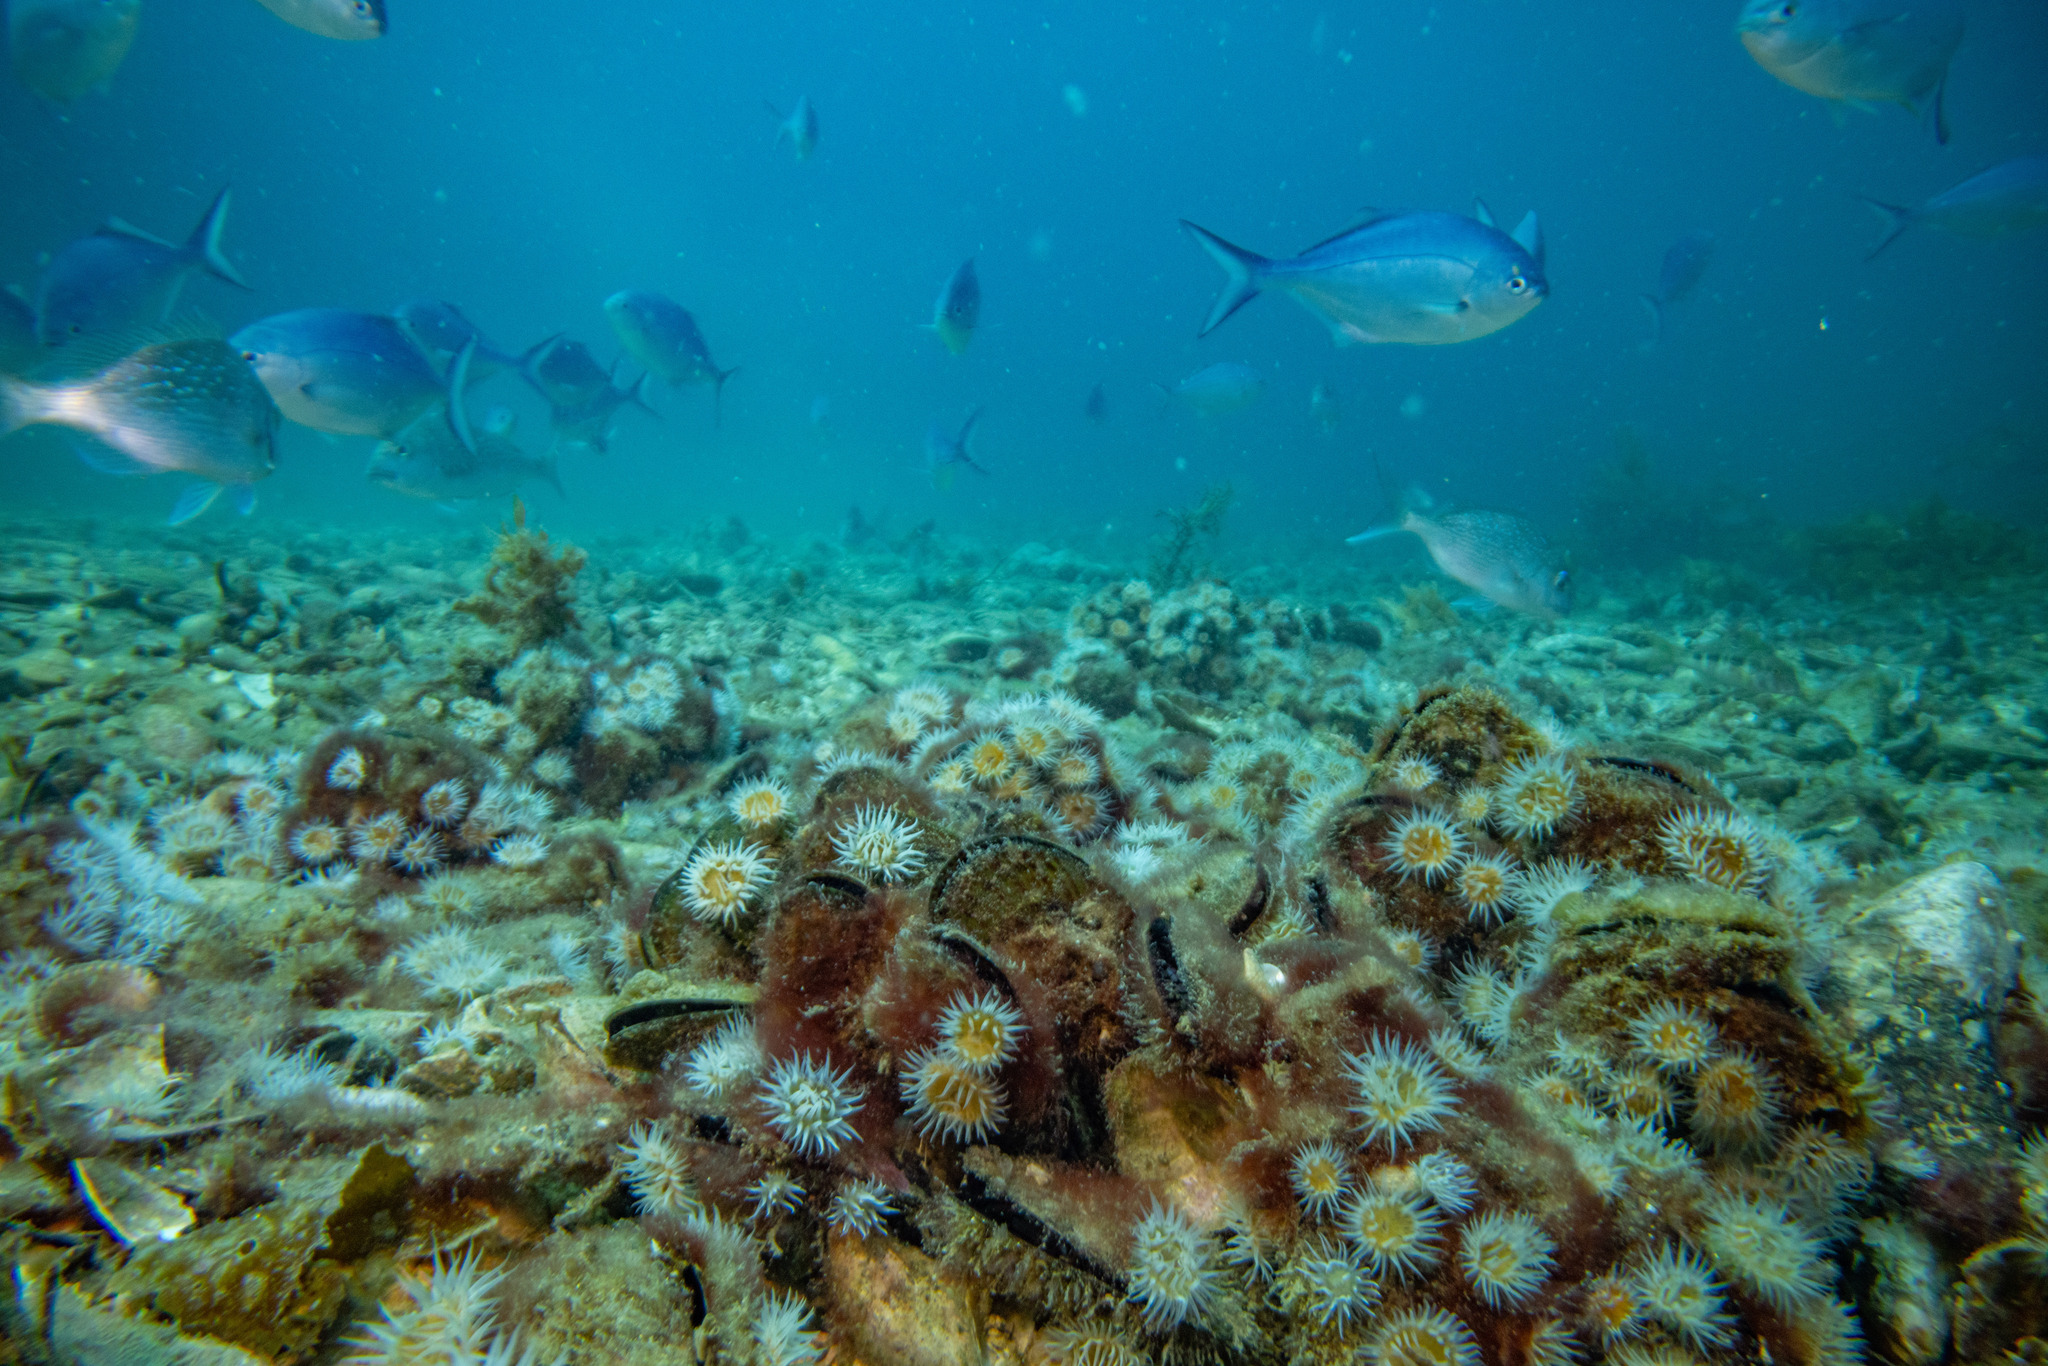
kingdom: Animalia
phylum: Mollusca
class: Bivalvia
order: Mytilida
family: Mytilidae
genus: Perna
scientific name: Perna canaliculus
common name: New zealand greenshelltm
